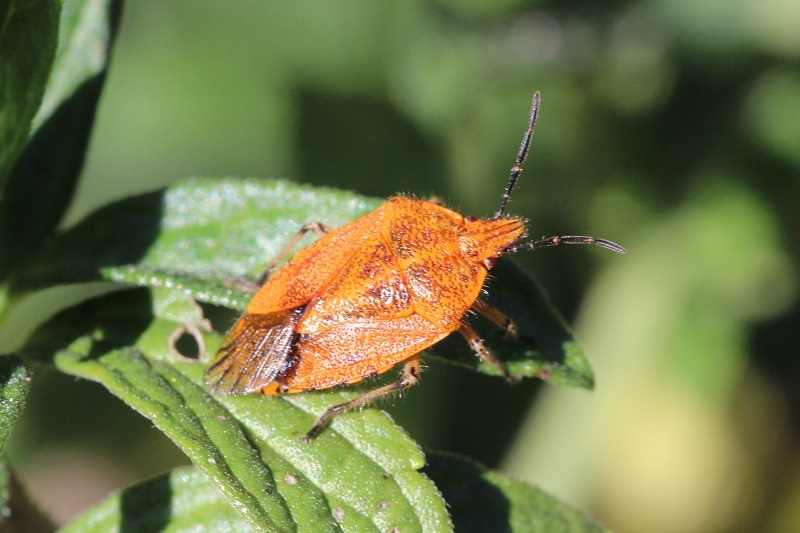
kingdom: Animalia
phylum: Arthropoda
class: Insecta
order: Hemiptera
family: Pentatomidae
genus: Agonoscelis
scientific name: Agonoscelis
